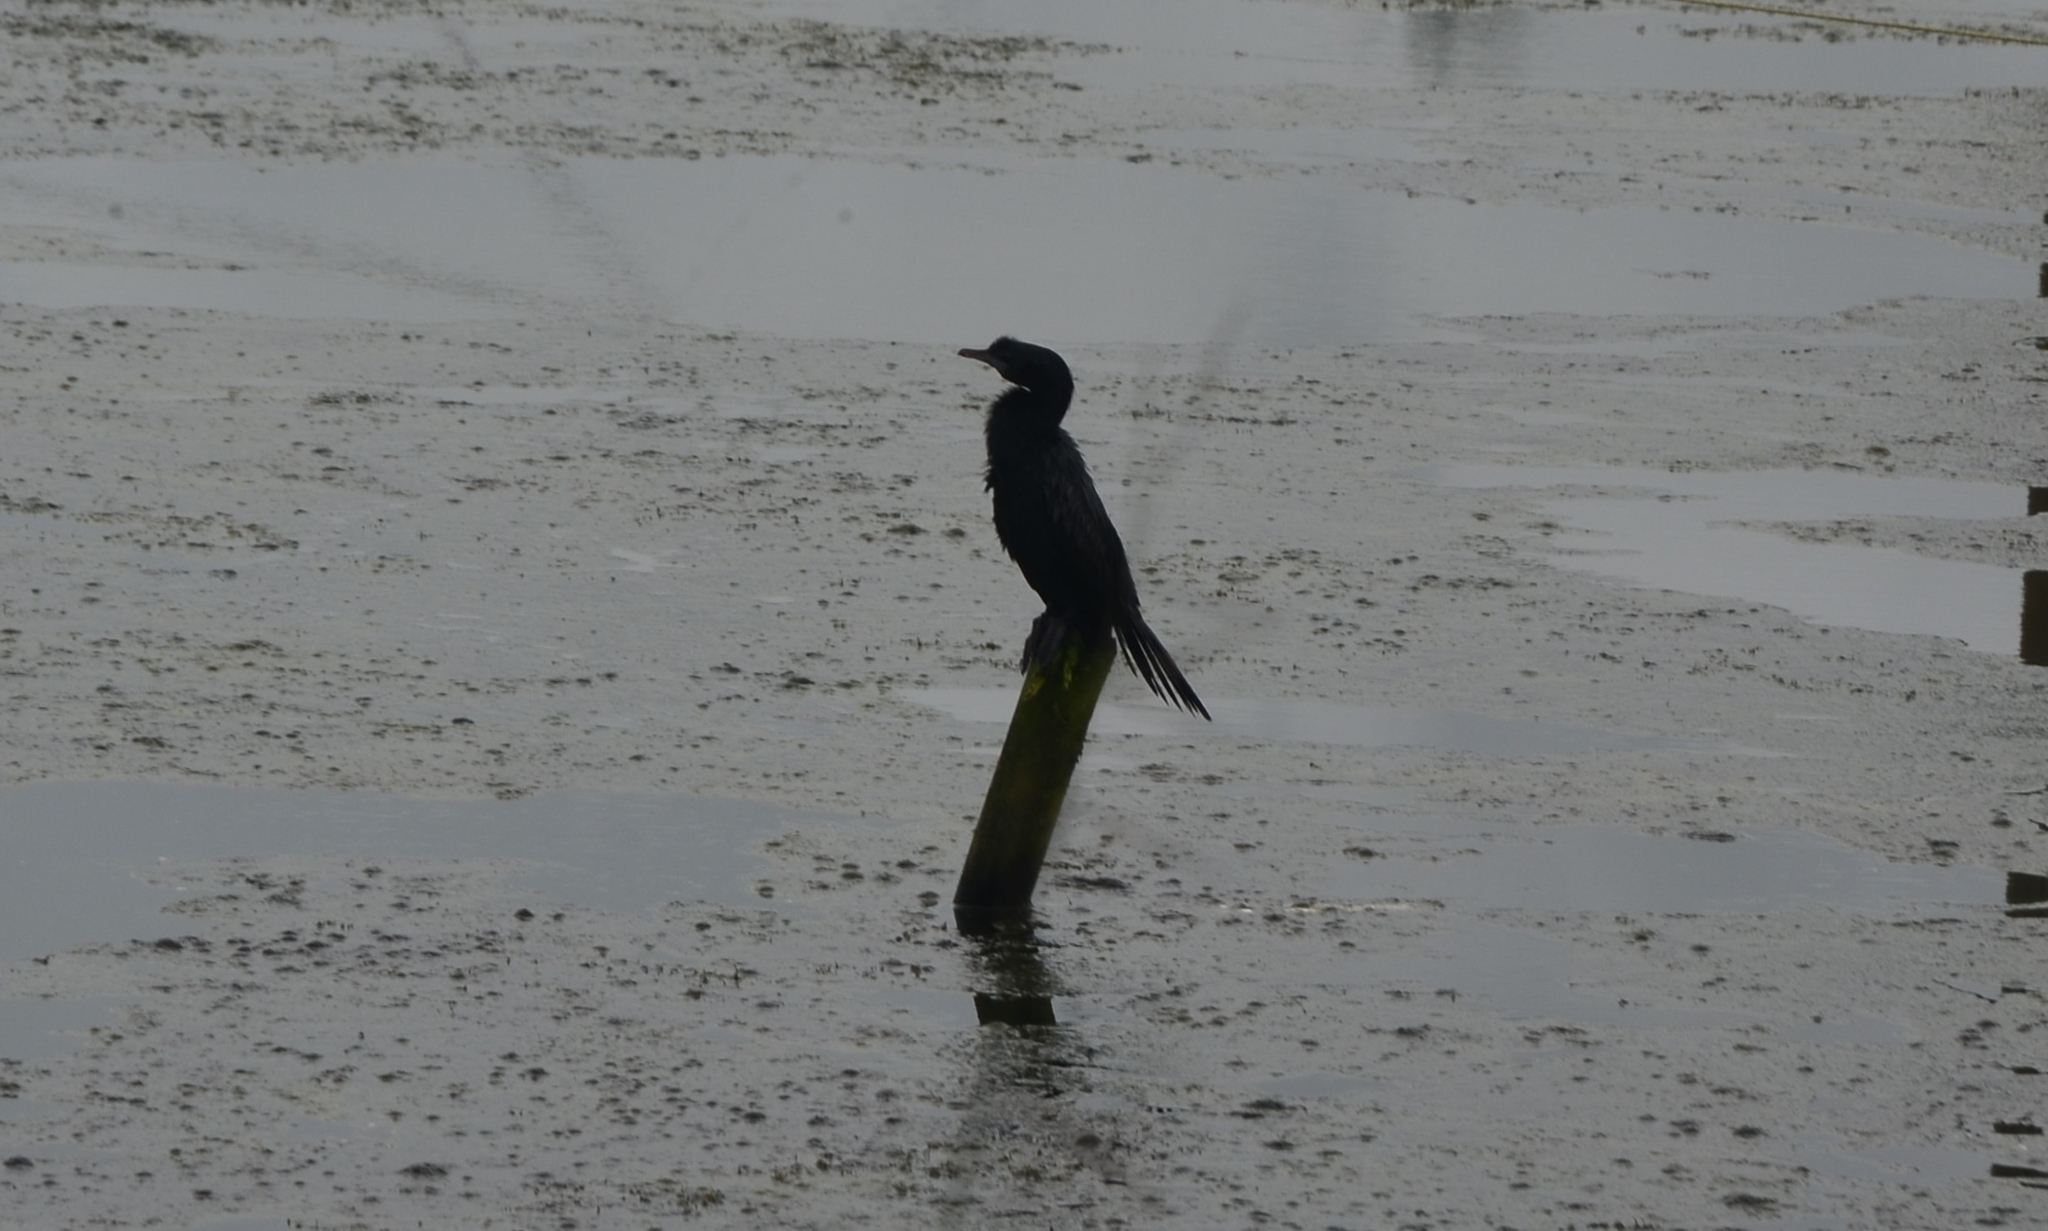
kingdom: Animalia
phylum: Chordata
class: Aves
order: Suliformes
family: Phalacrocoracidae
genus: Microcarbo
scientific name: Microcarbo niger
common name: Little cormorant
